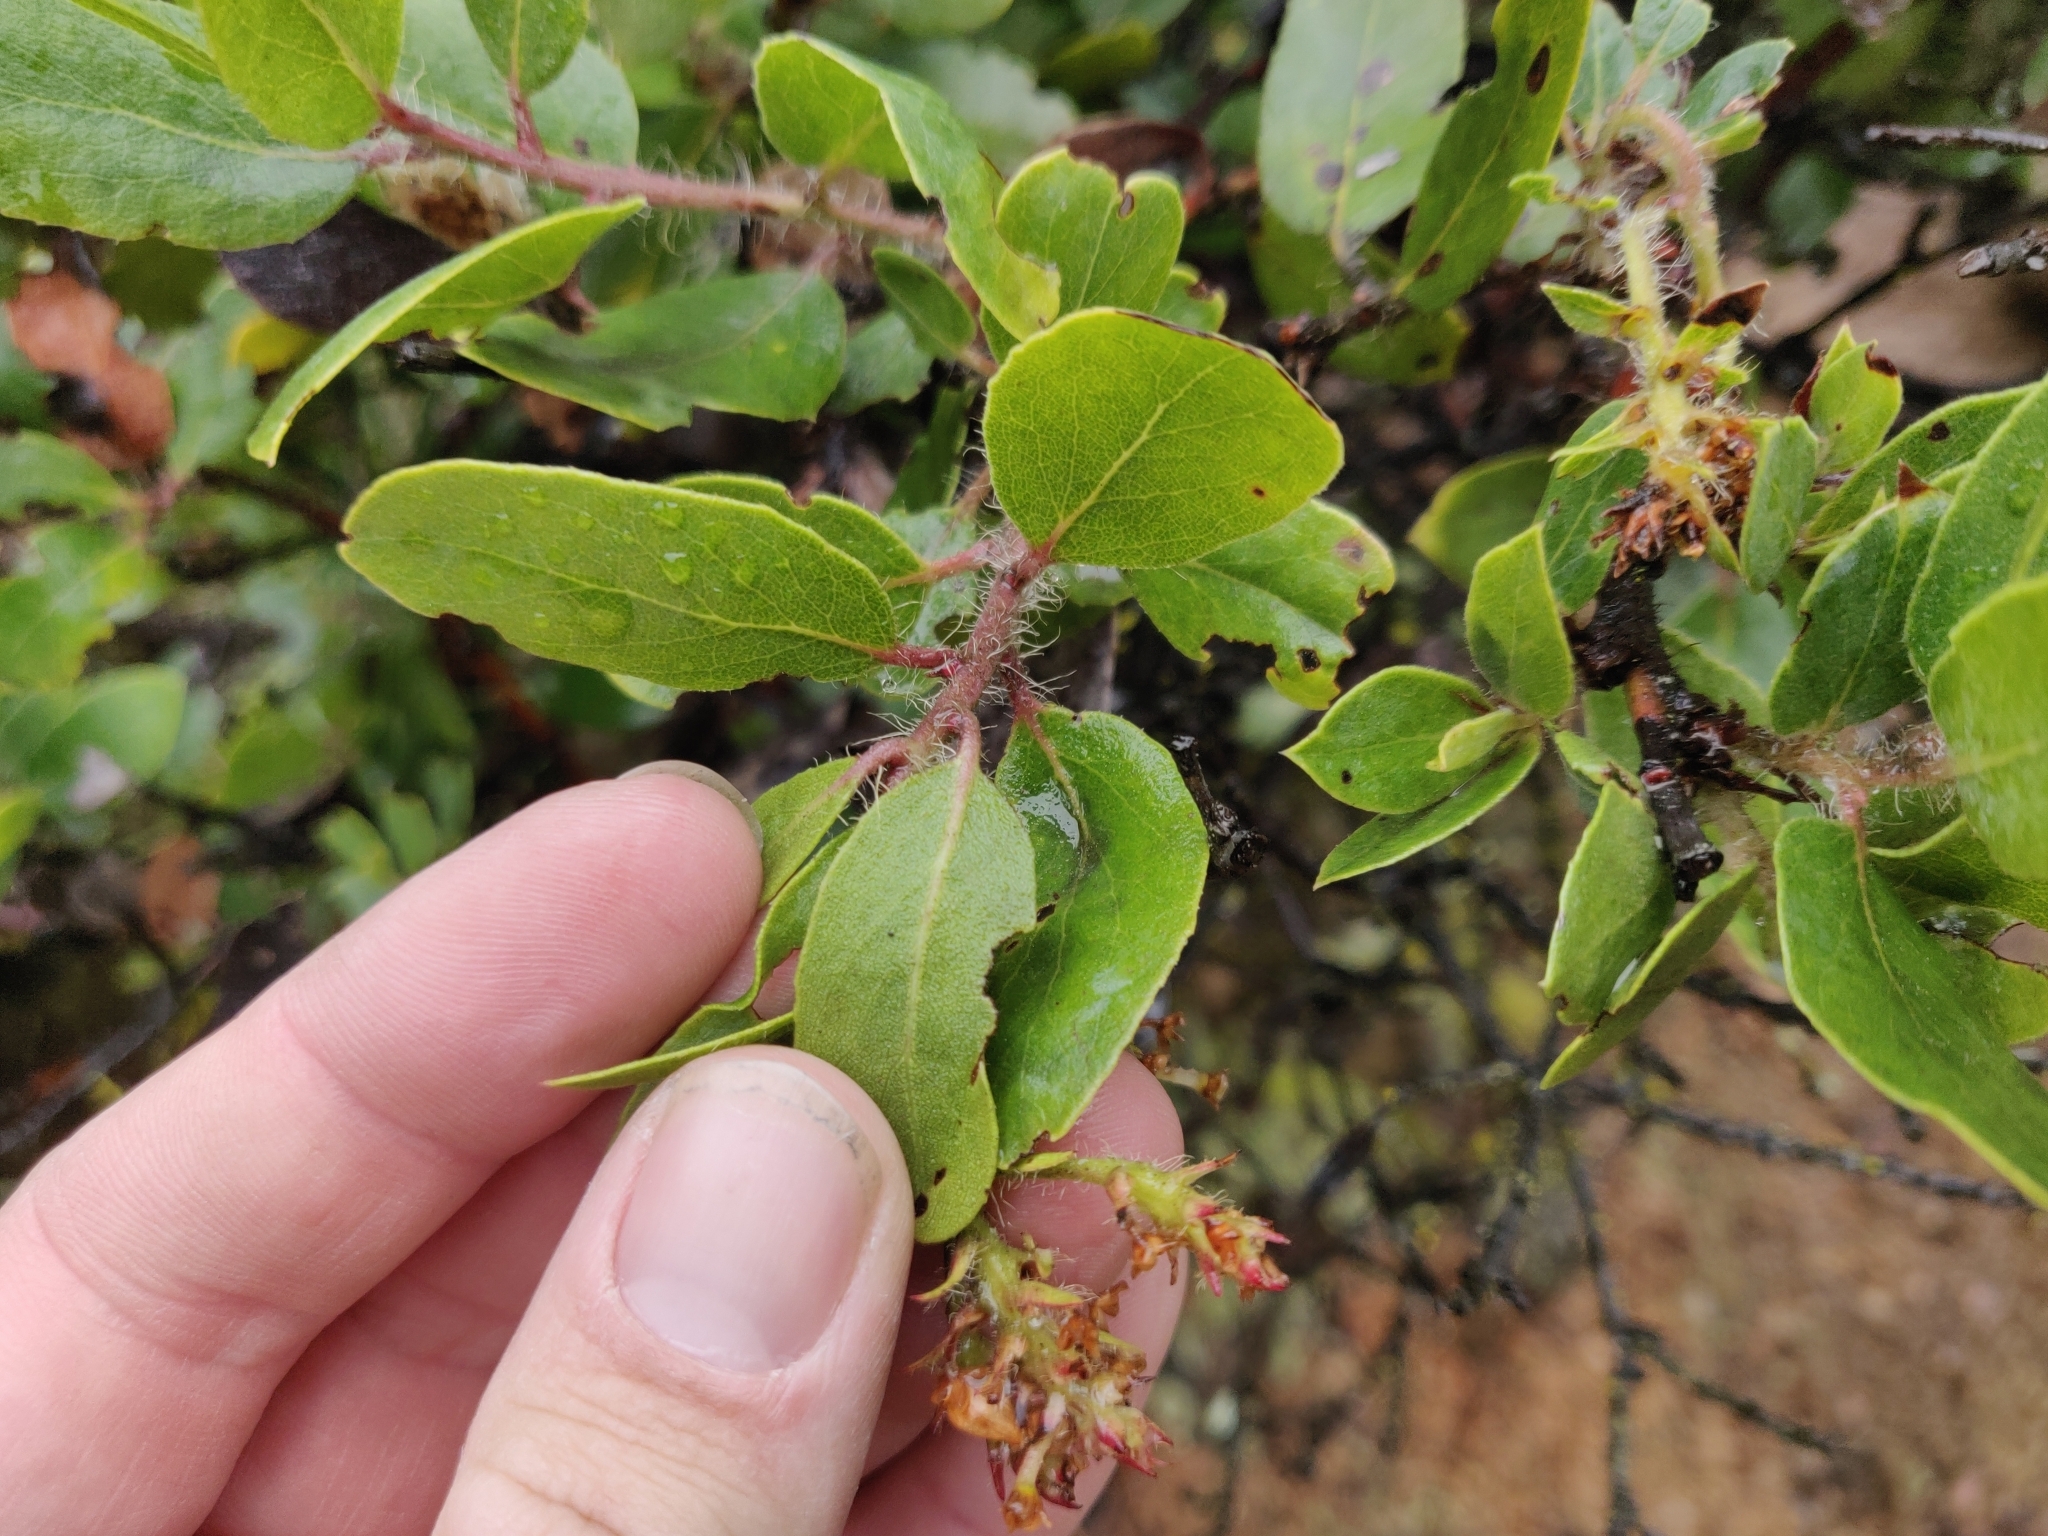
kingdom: Plantae
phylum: Tracheophyta
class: Magnoliopsida
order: Ericales
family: Ericaceae
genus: Arctostaphylos
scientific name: Arctostaphylos crustacea
